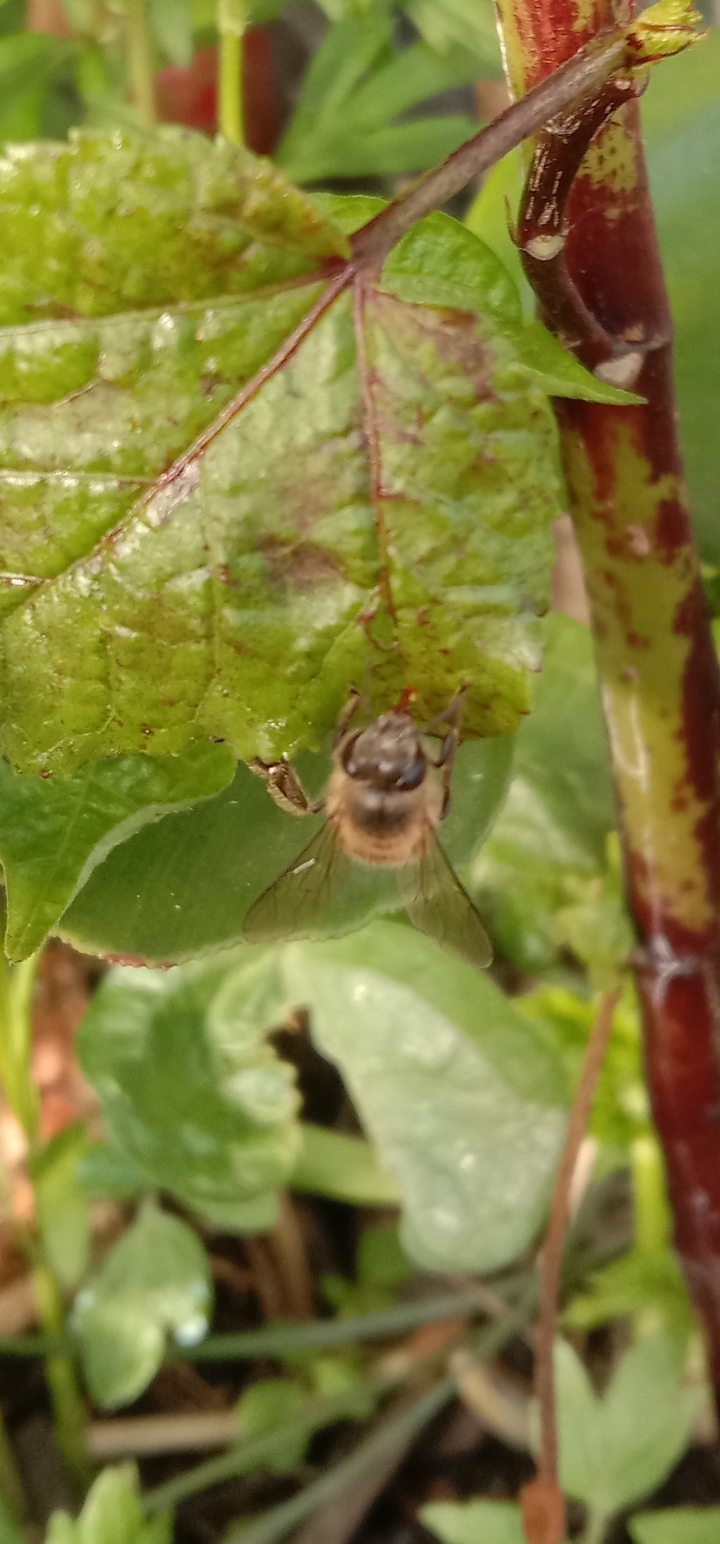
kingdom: Animalia
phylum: Arthropoda
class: Insecta
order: Hymenoptera
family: Apidae
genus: Apis
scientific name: Apis cerana
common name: Honey bee
